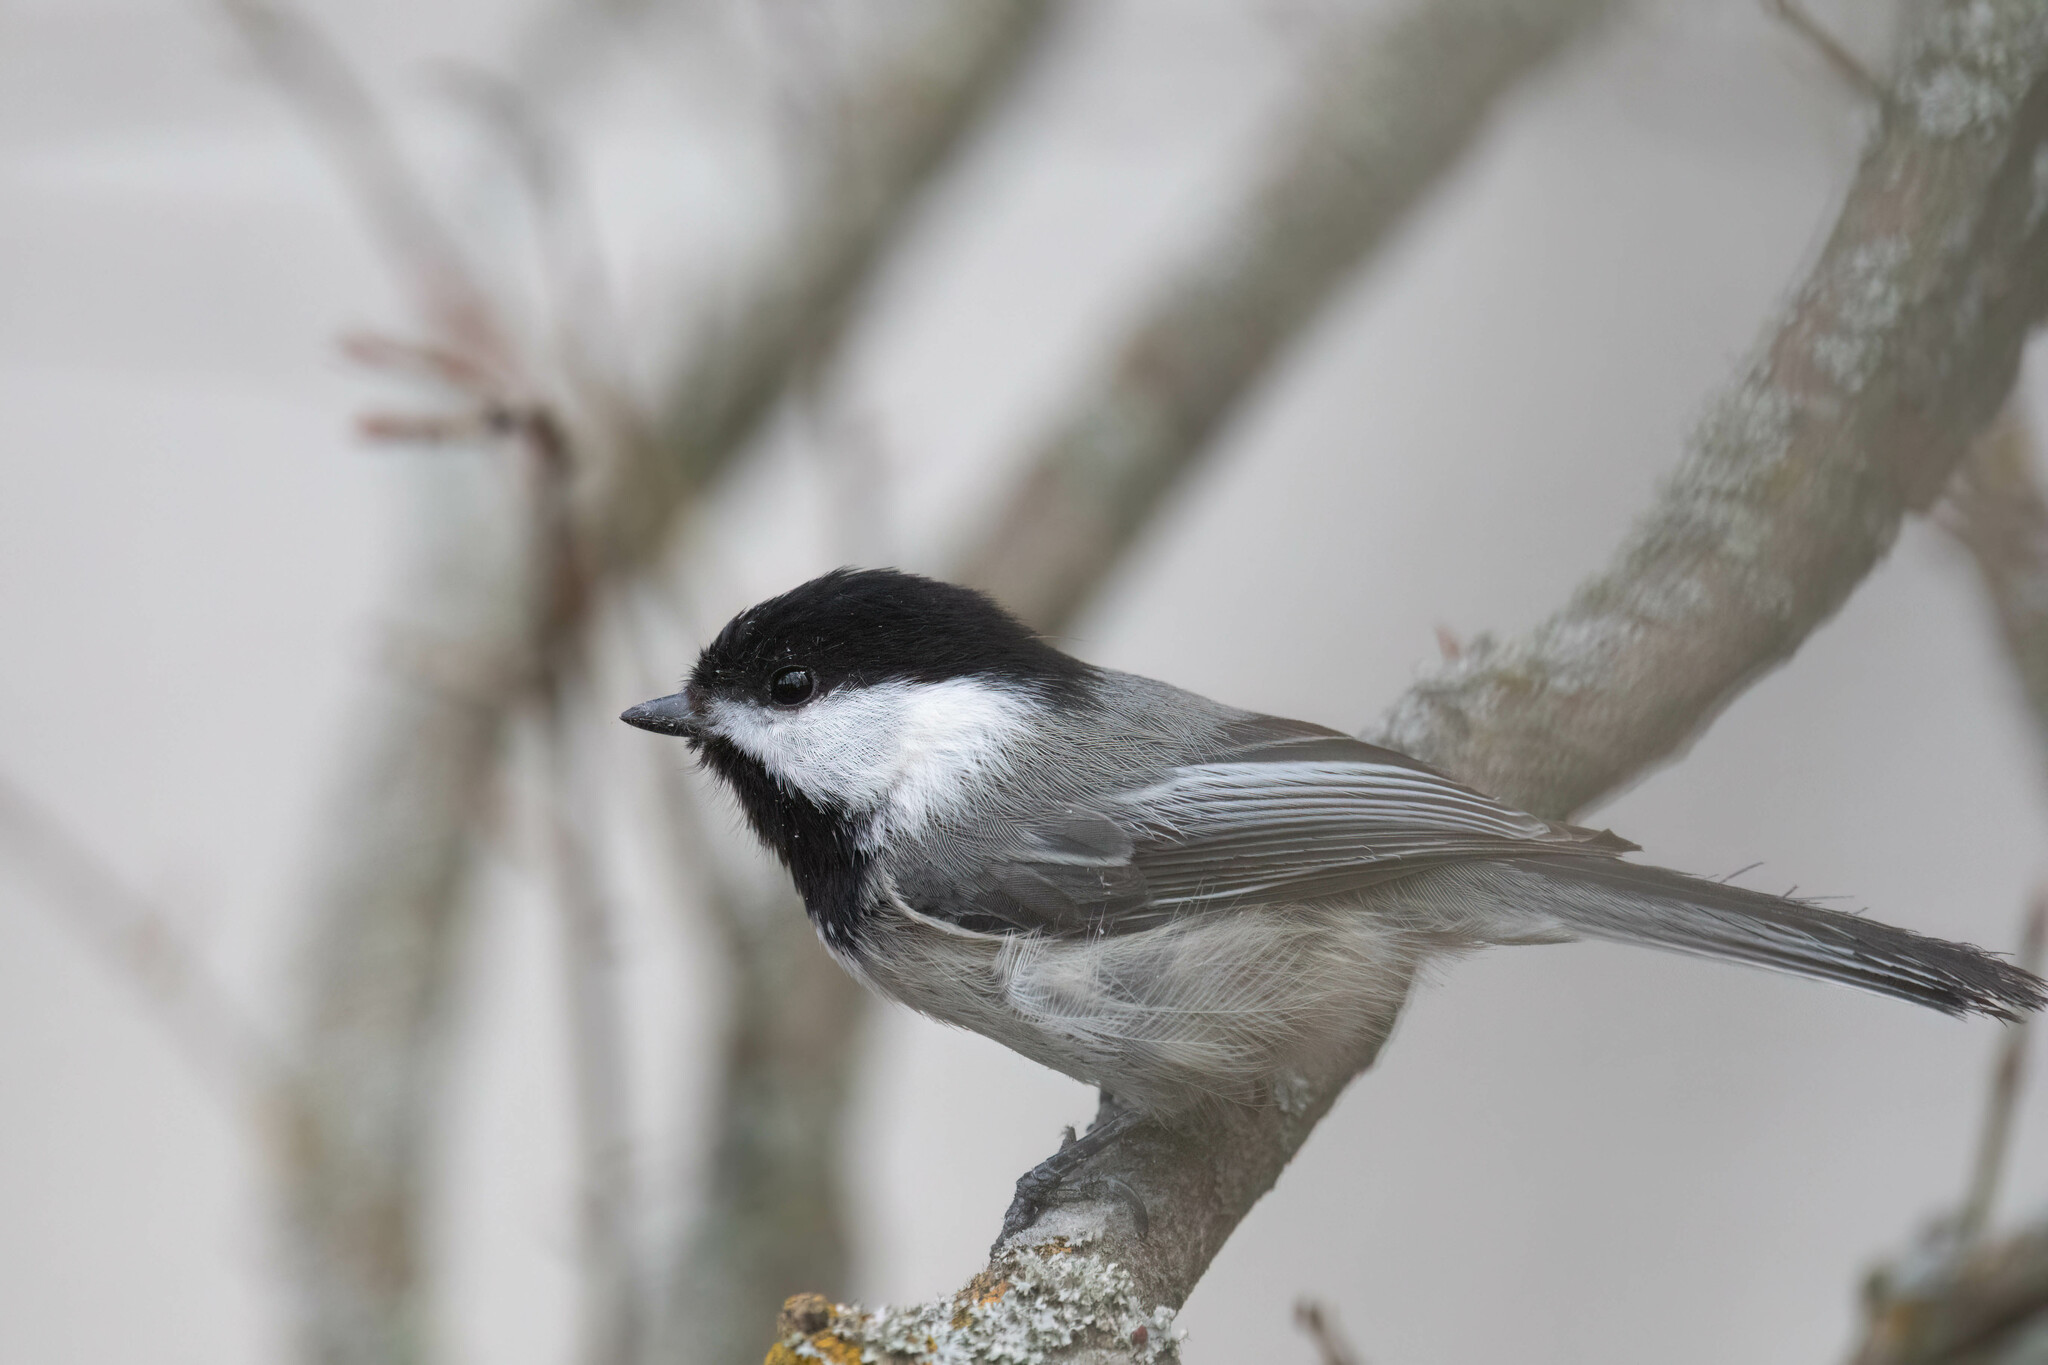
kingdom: Animalia
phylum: Chordata
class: Aves
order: Passeriformes
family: Paridae
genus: Poecile
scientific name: Poecile atricapillus
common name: Black-capped chickadee
